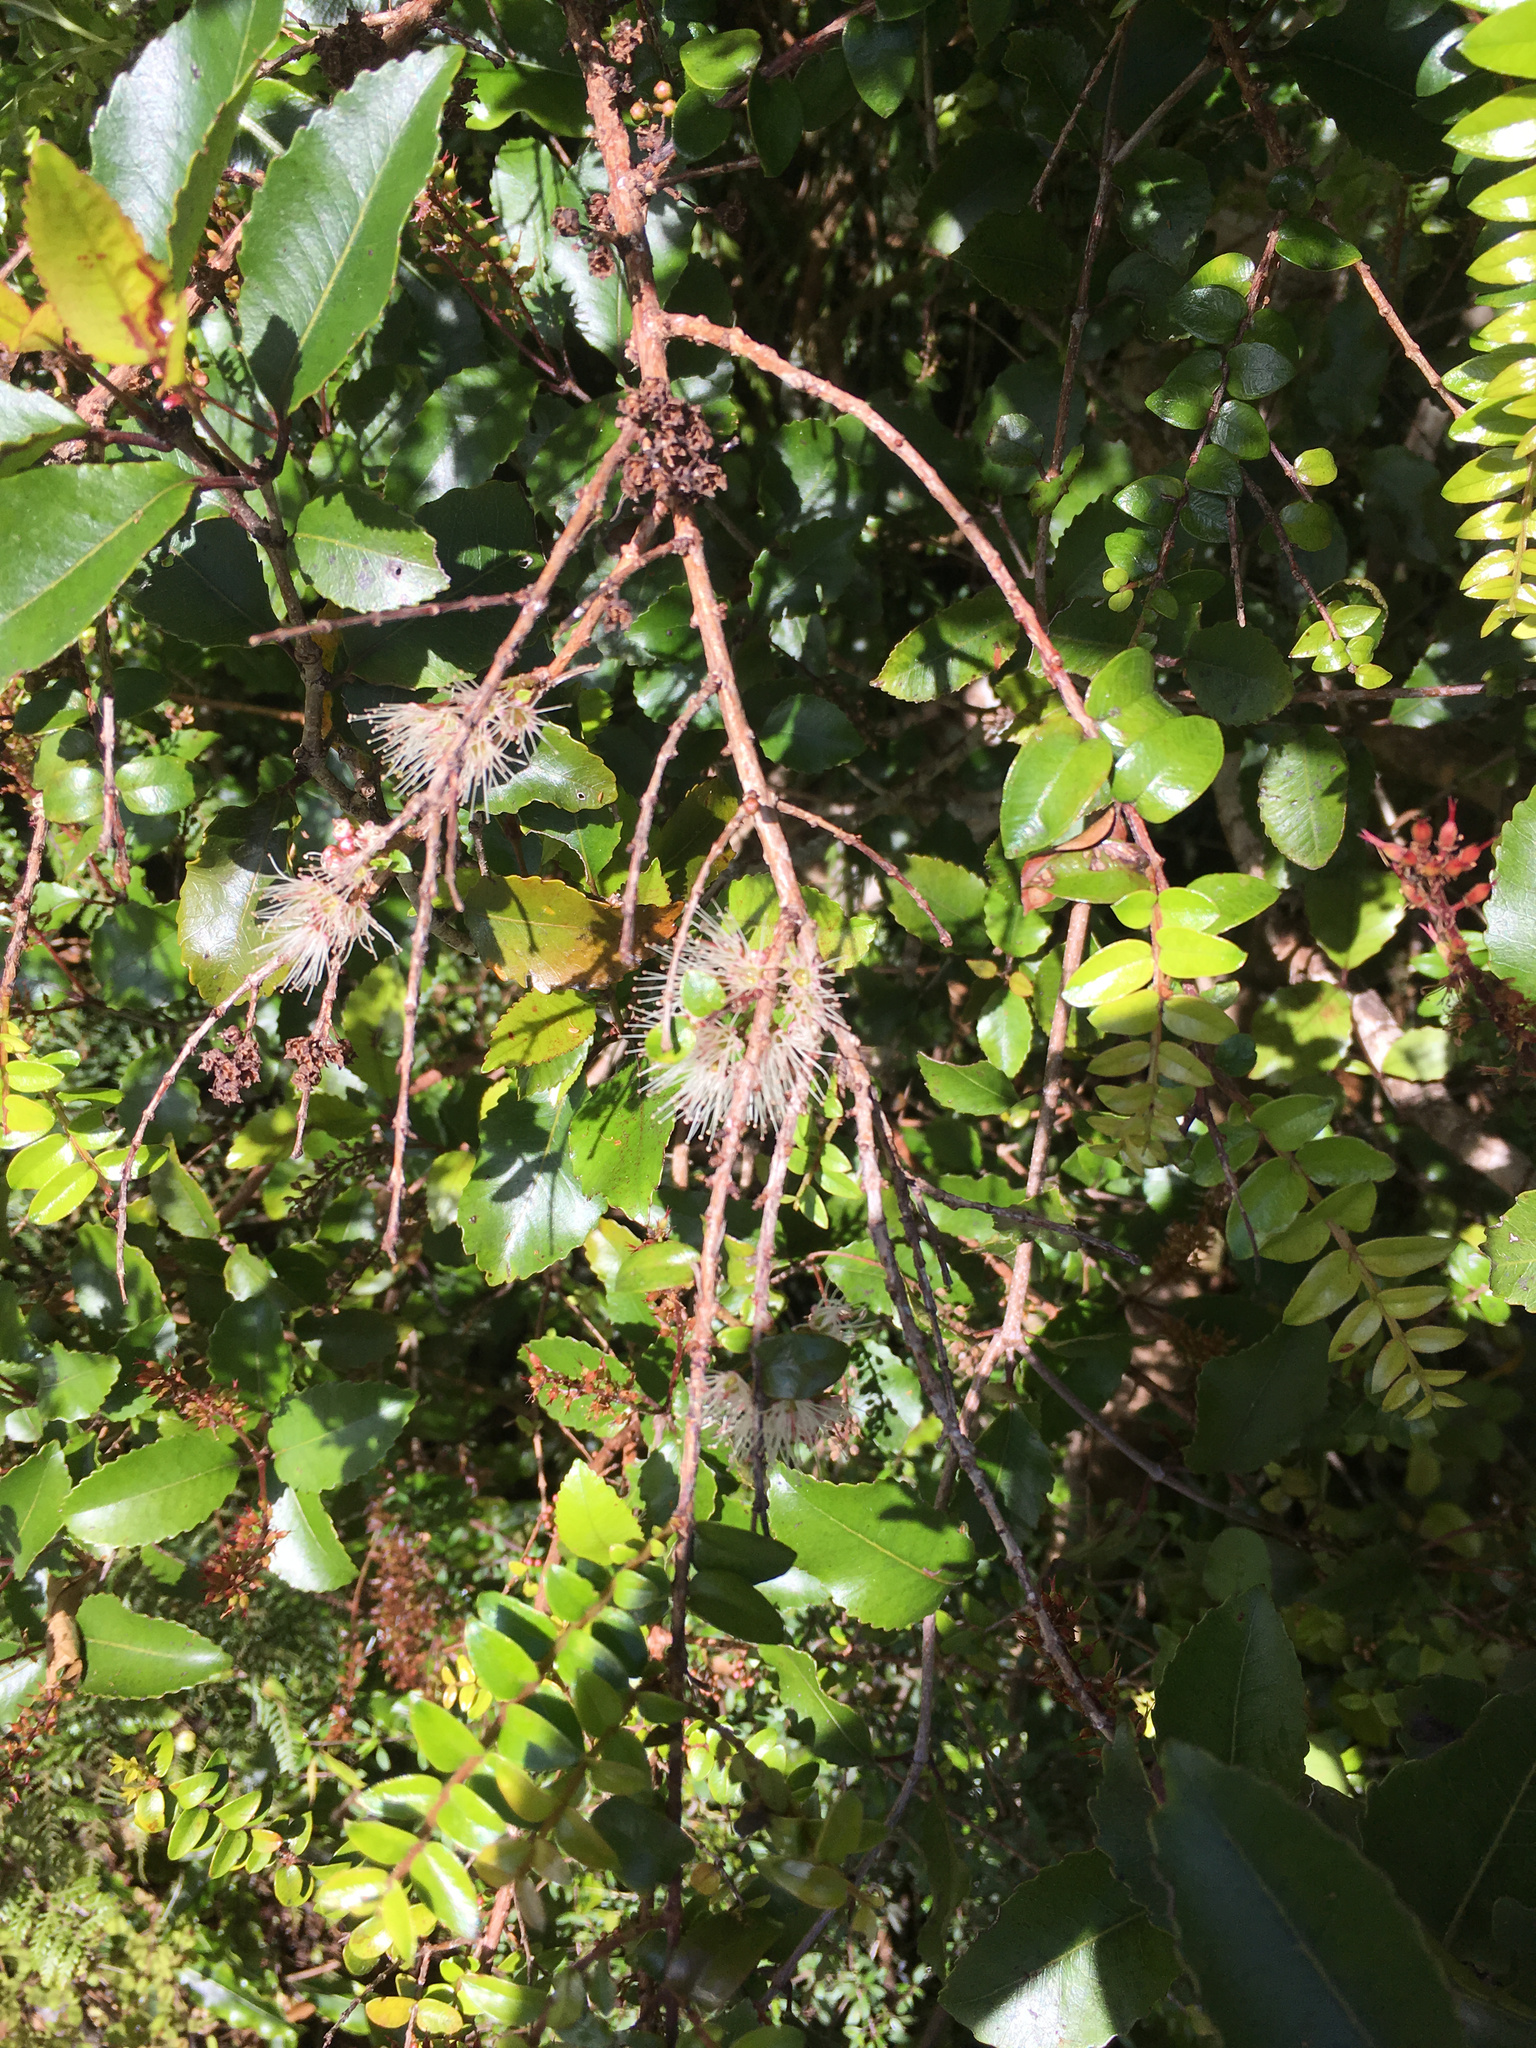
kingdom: Plantae
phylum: Tracheophyta
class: Magnoliopsida
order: Myrtales
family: Myrtaceae
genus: Metrosideros
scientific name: Metrosideros diffusa
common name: Small ratavine
